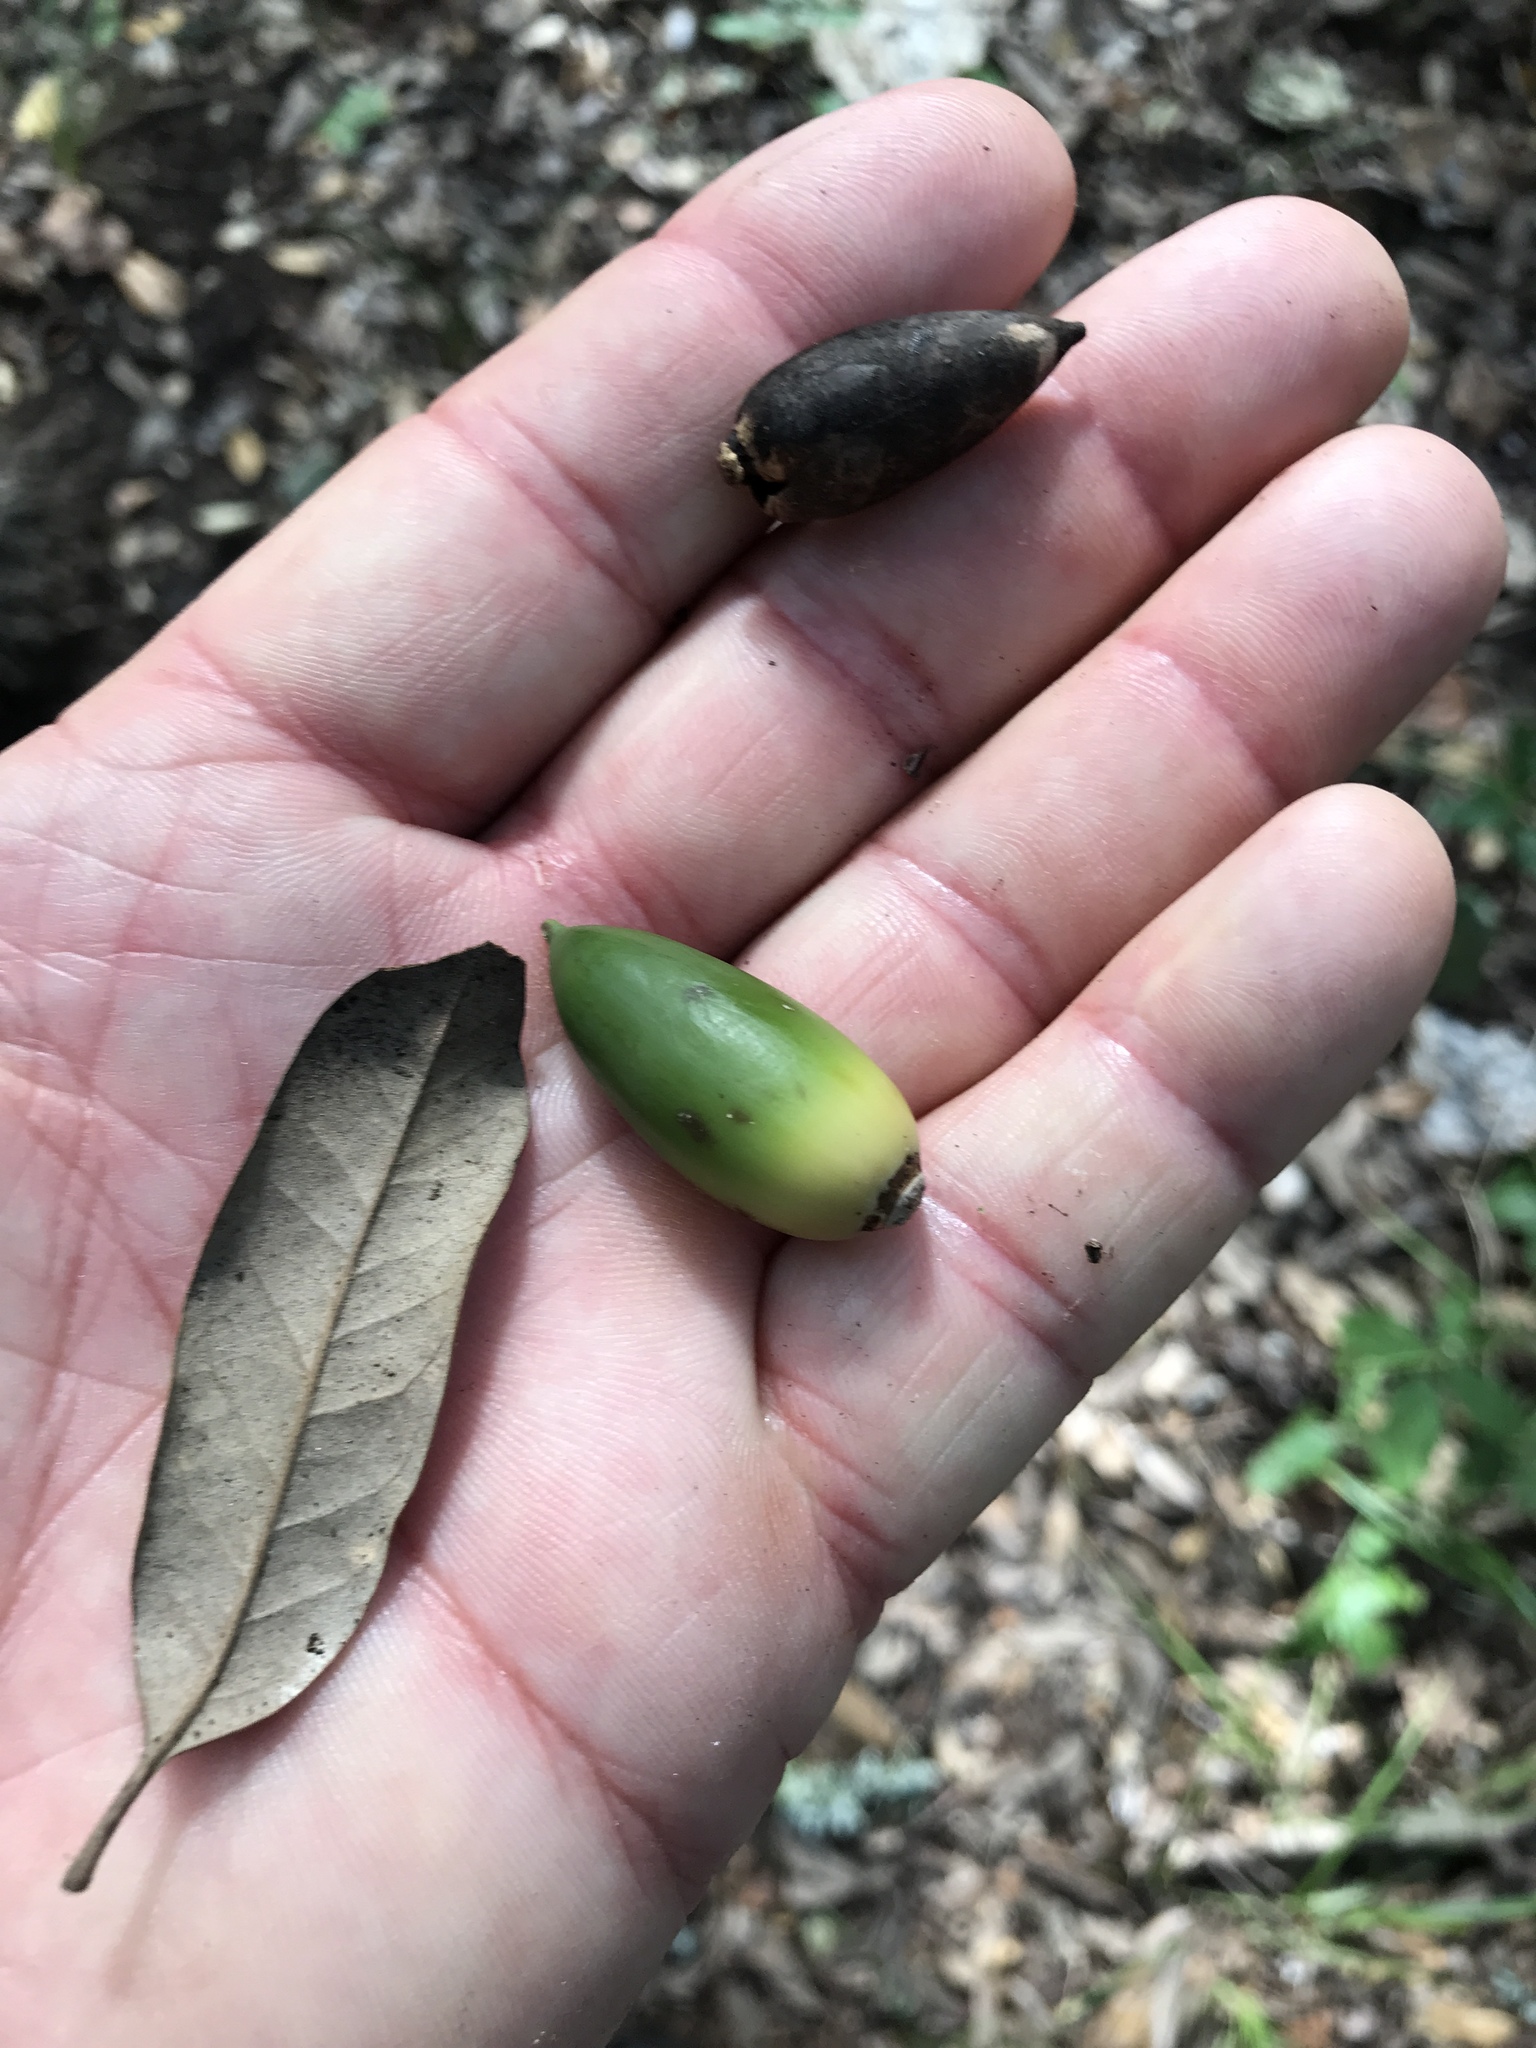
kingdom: Plantae
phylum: Tracheophyta
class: Magnoliopsida
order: Fagales
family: Fagaceae
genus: Quercus
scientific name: Quercus fusiformis
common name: Texas live oak
